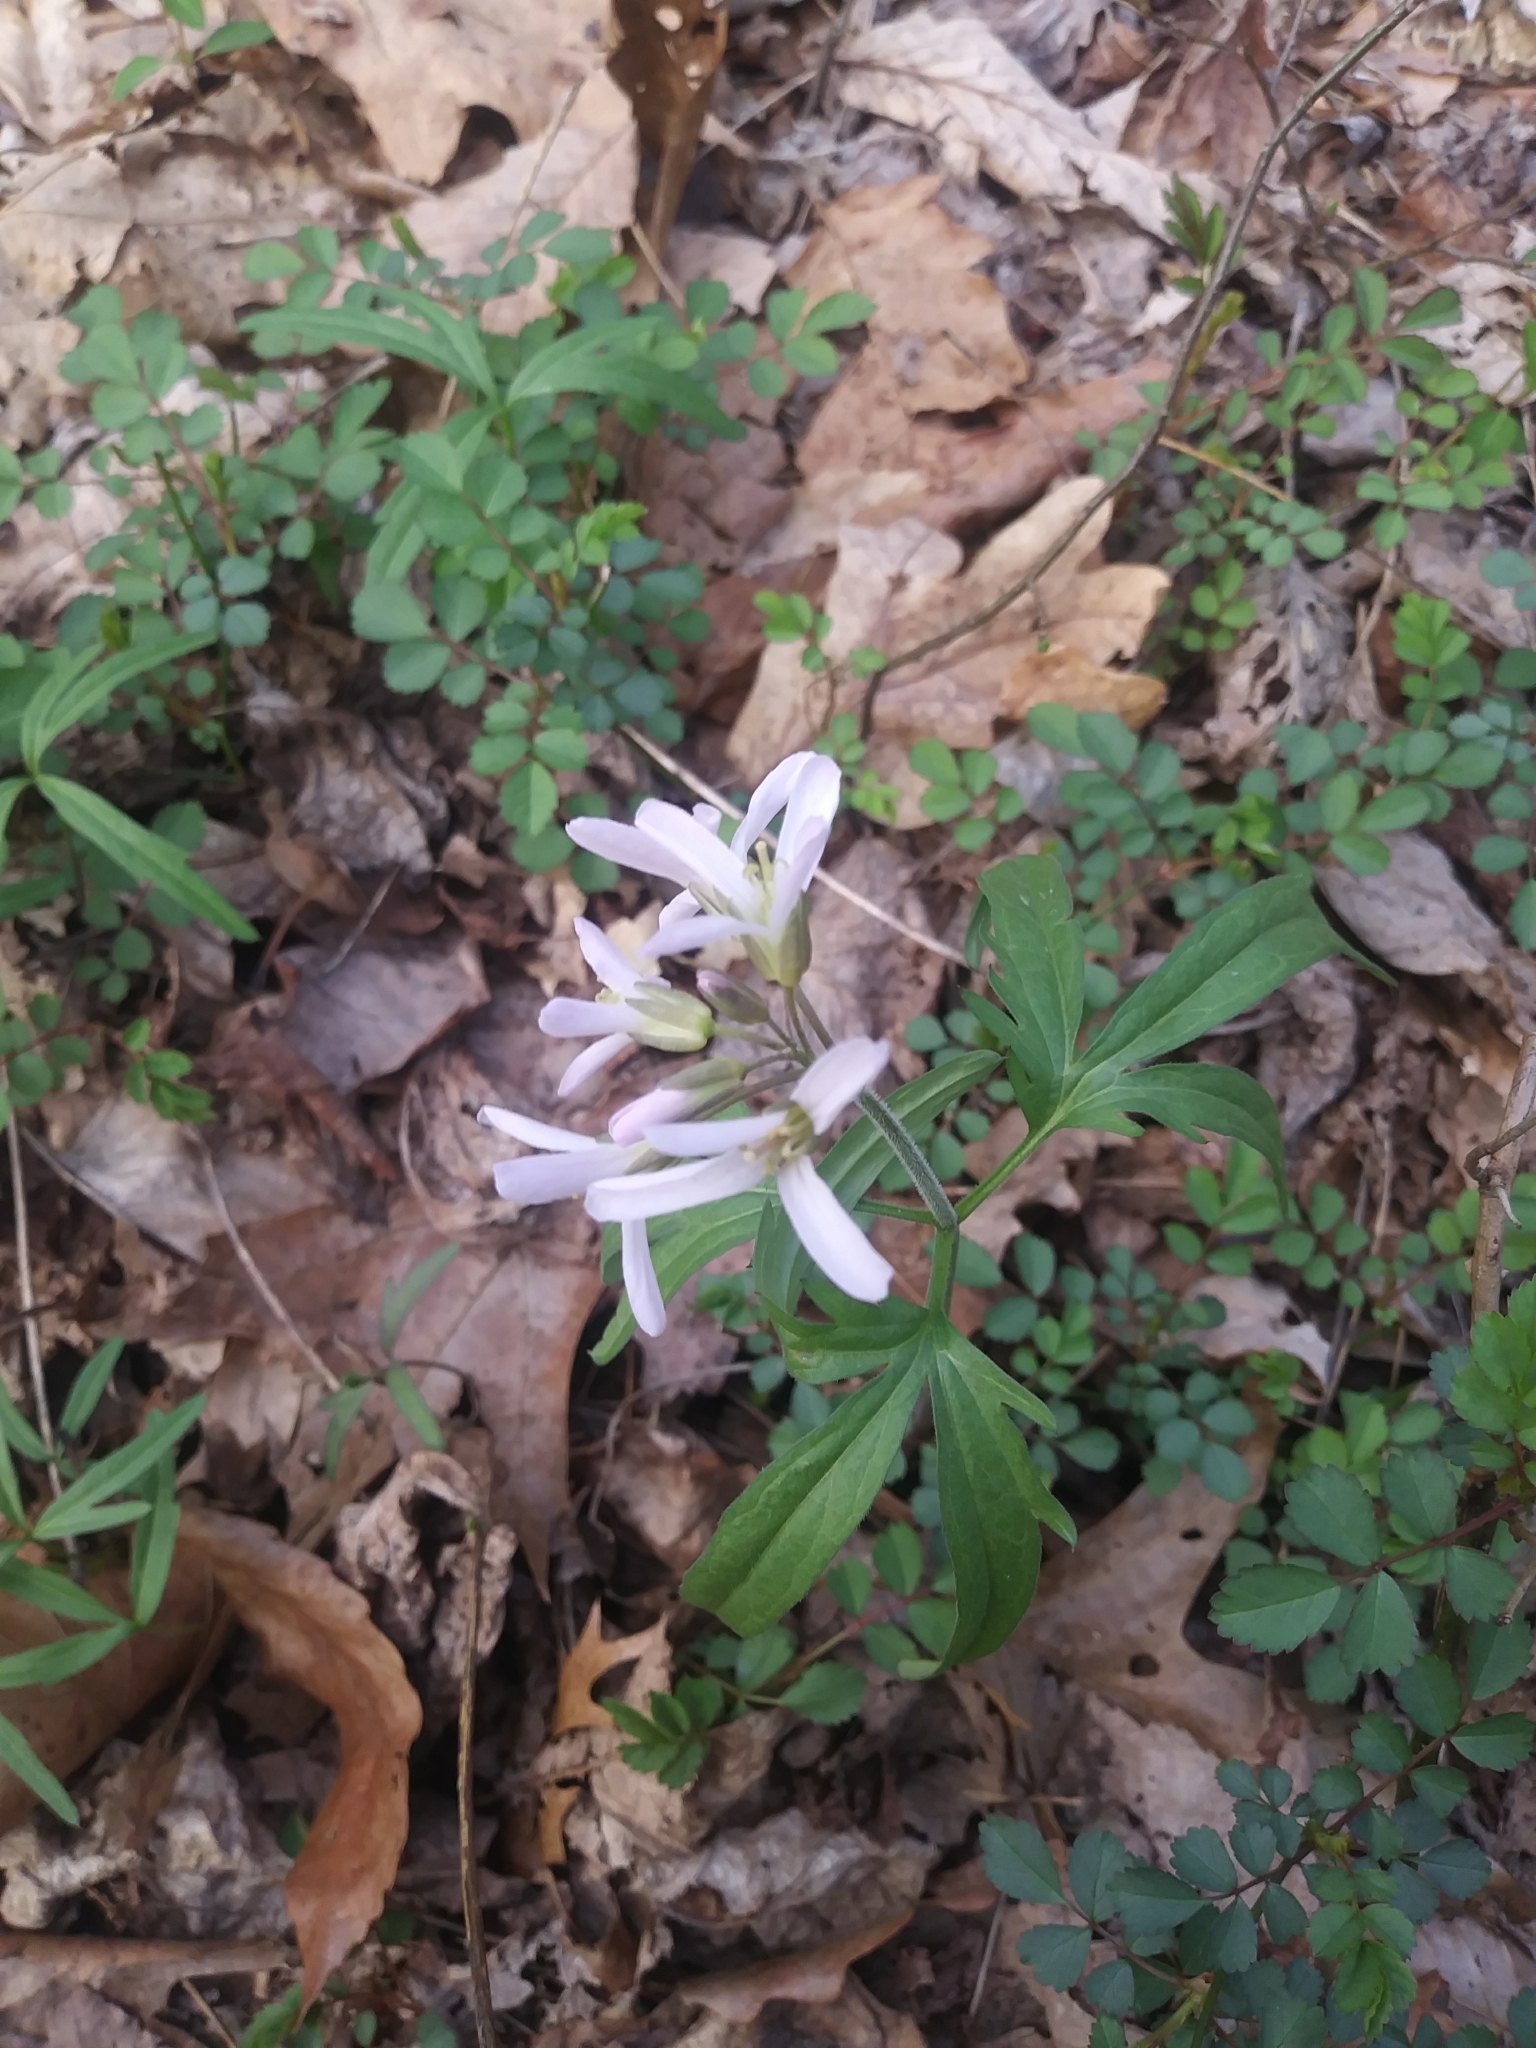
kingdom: Plantae
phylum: Tracheophyta
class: Magnoliopsida
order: Brassicales
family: Brassicaceae
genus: Cardamine
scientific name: Cardamine concatenata
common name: Cut-leaf toothcup
